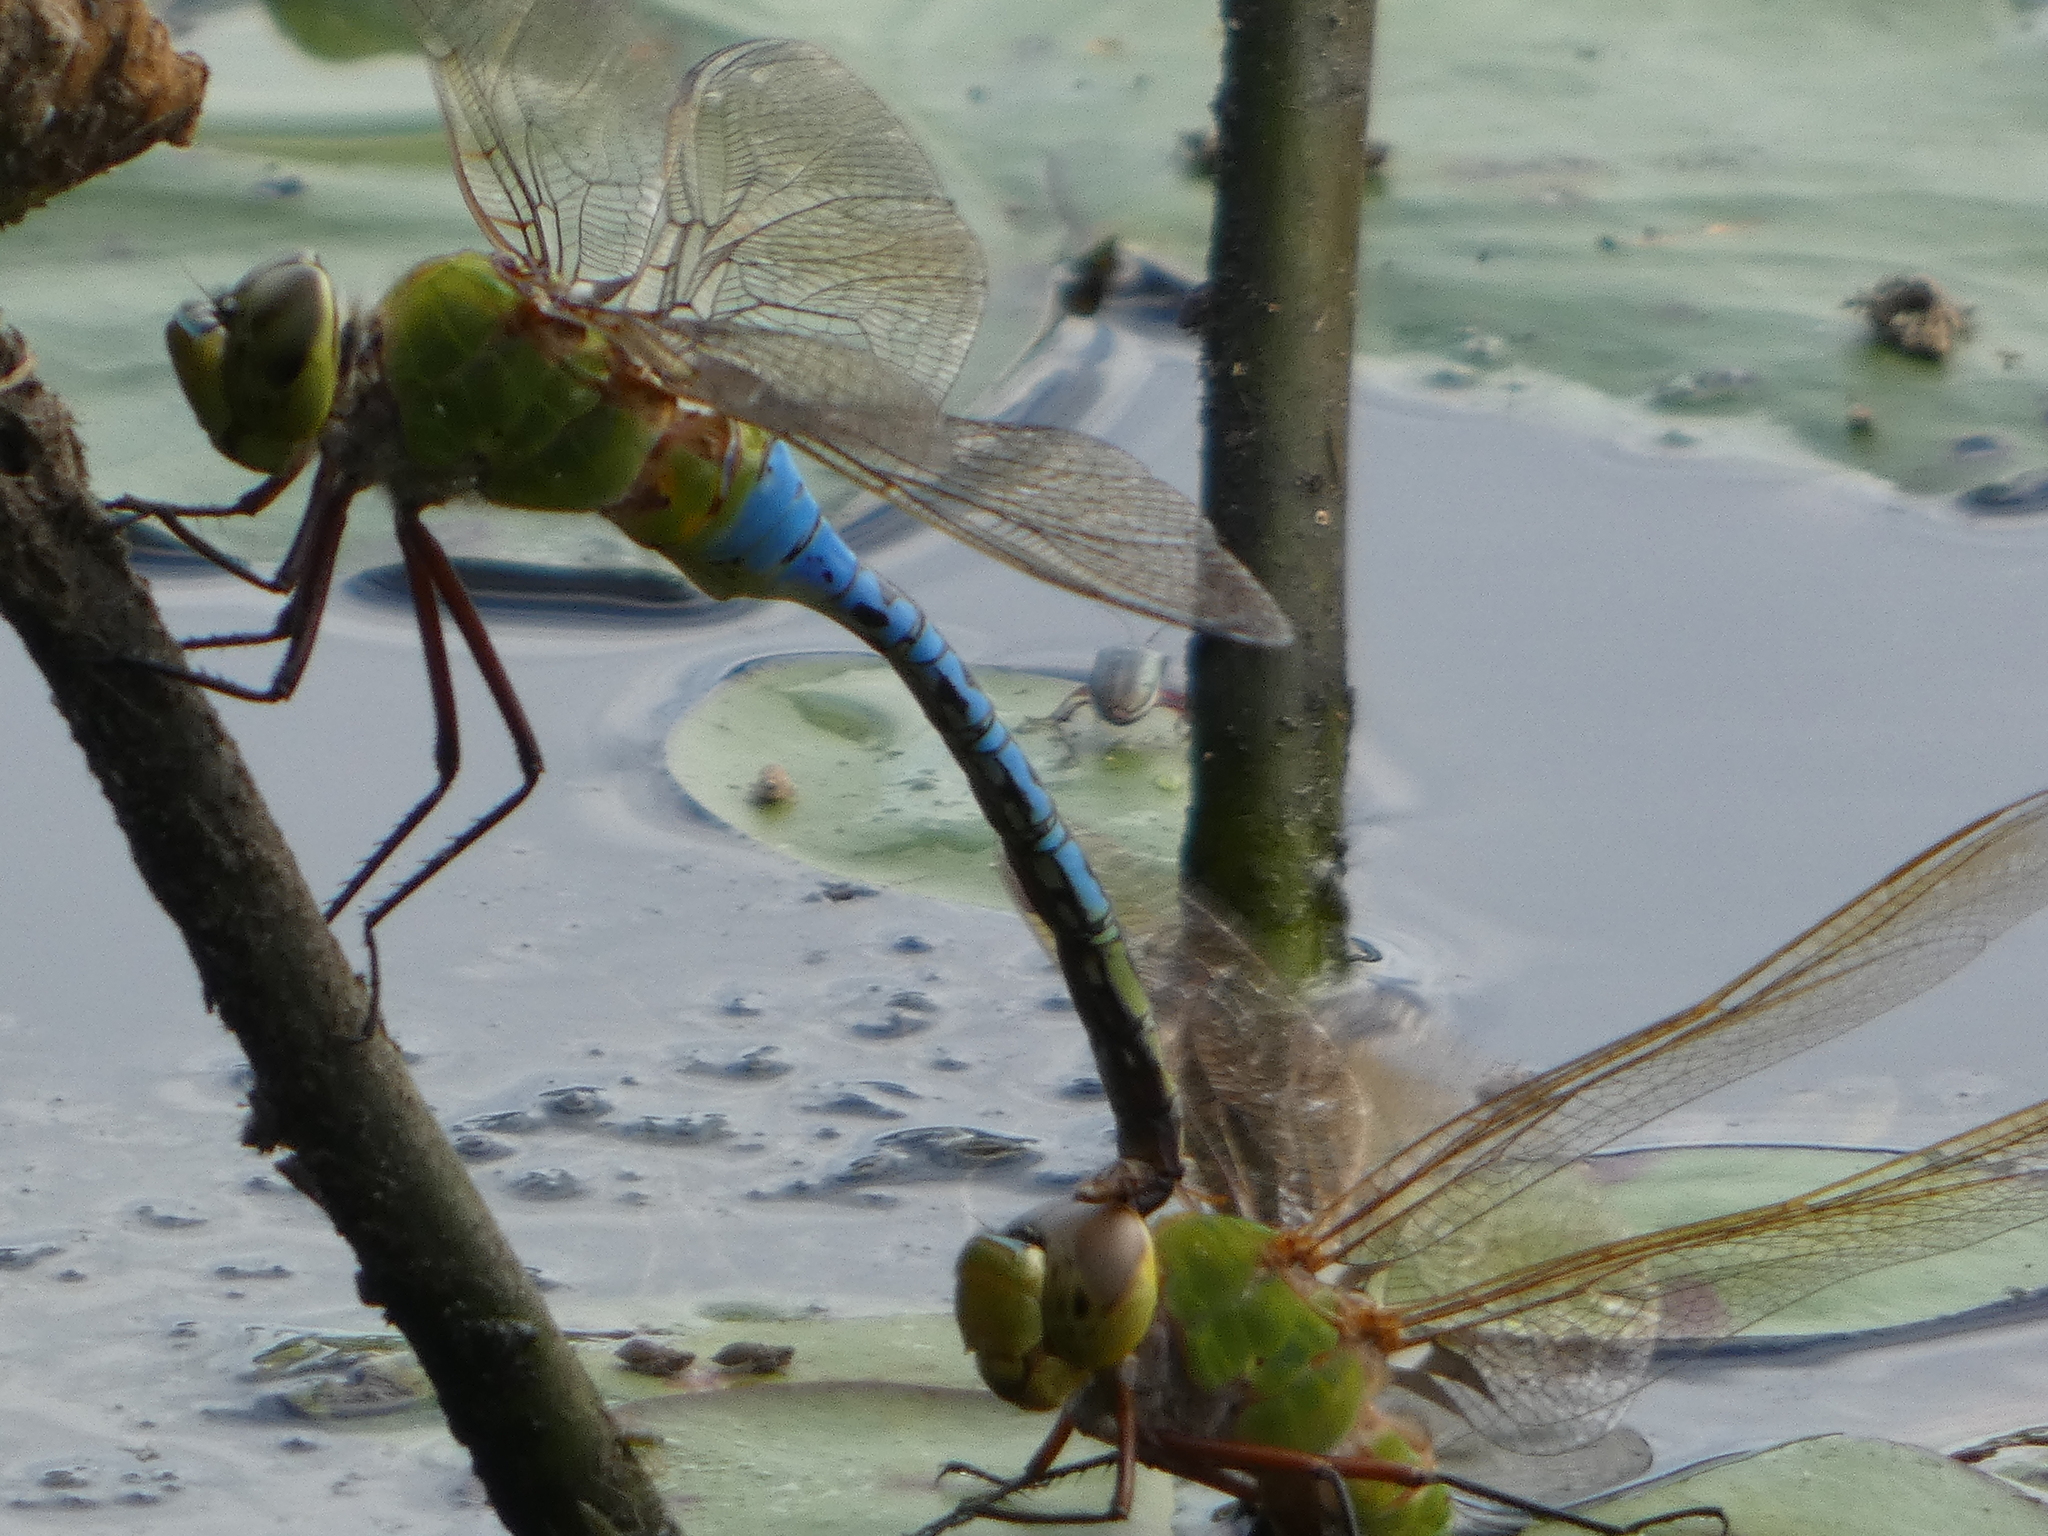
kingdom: Animalia
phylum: Arthropoda
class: Insecta
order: Odonata
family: Aeshnidae
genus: Anax
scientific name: Anax junius
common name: Common green darner
